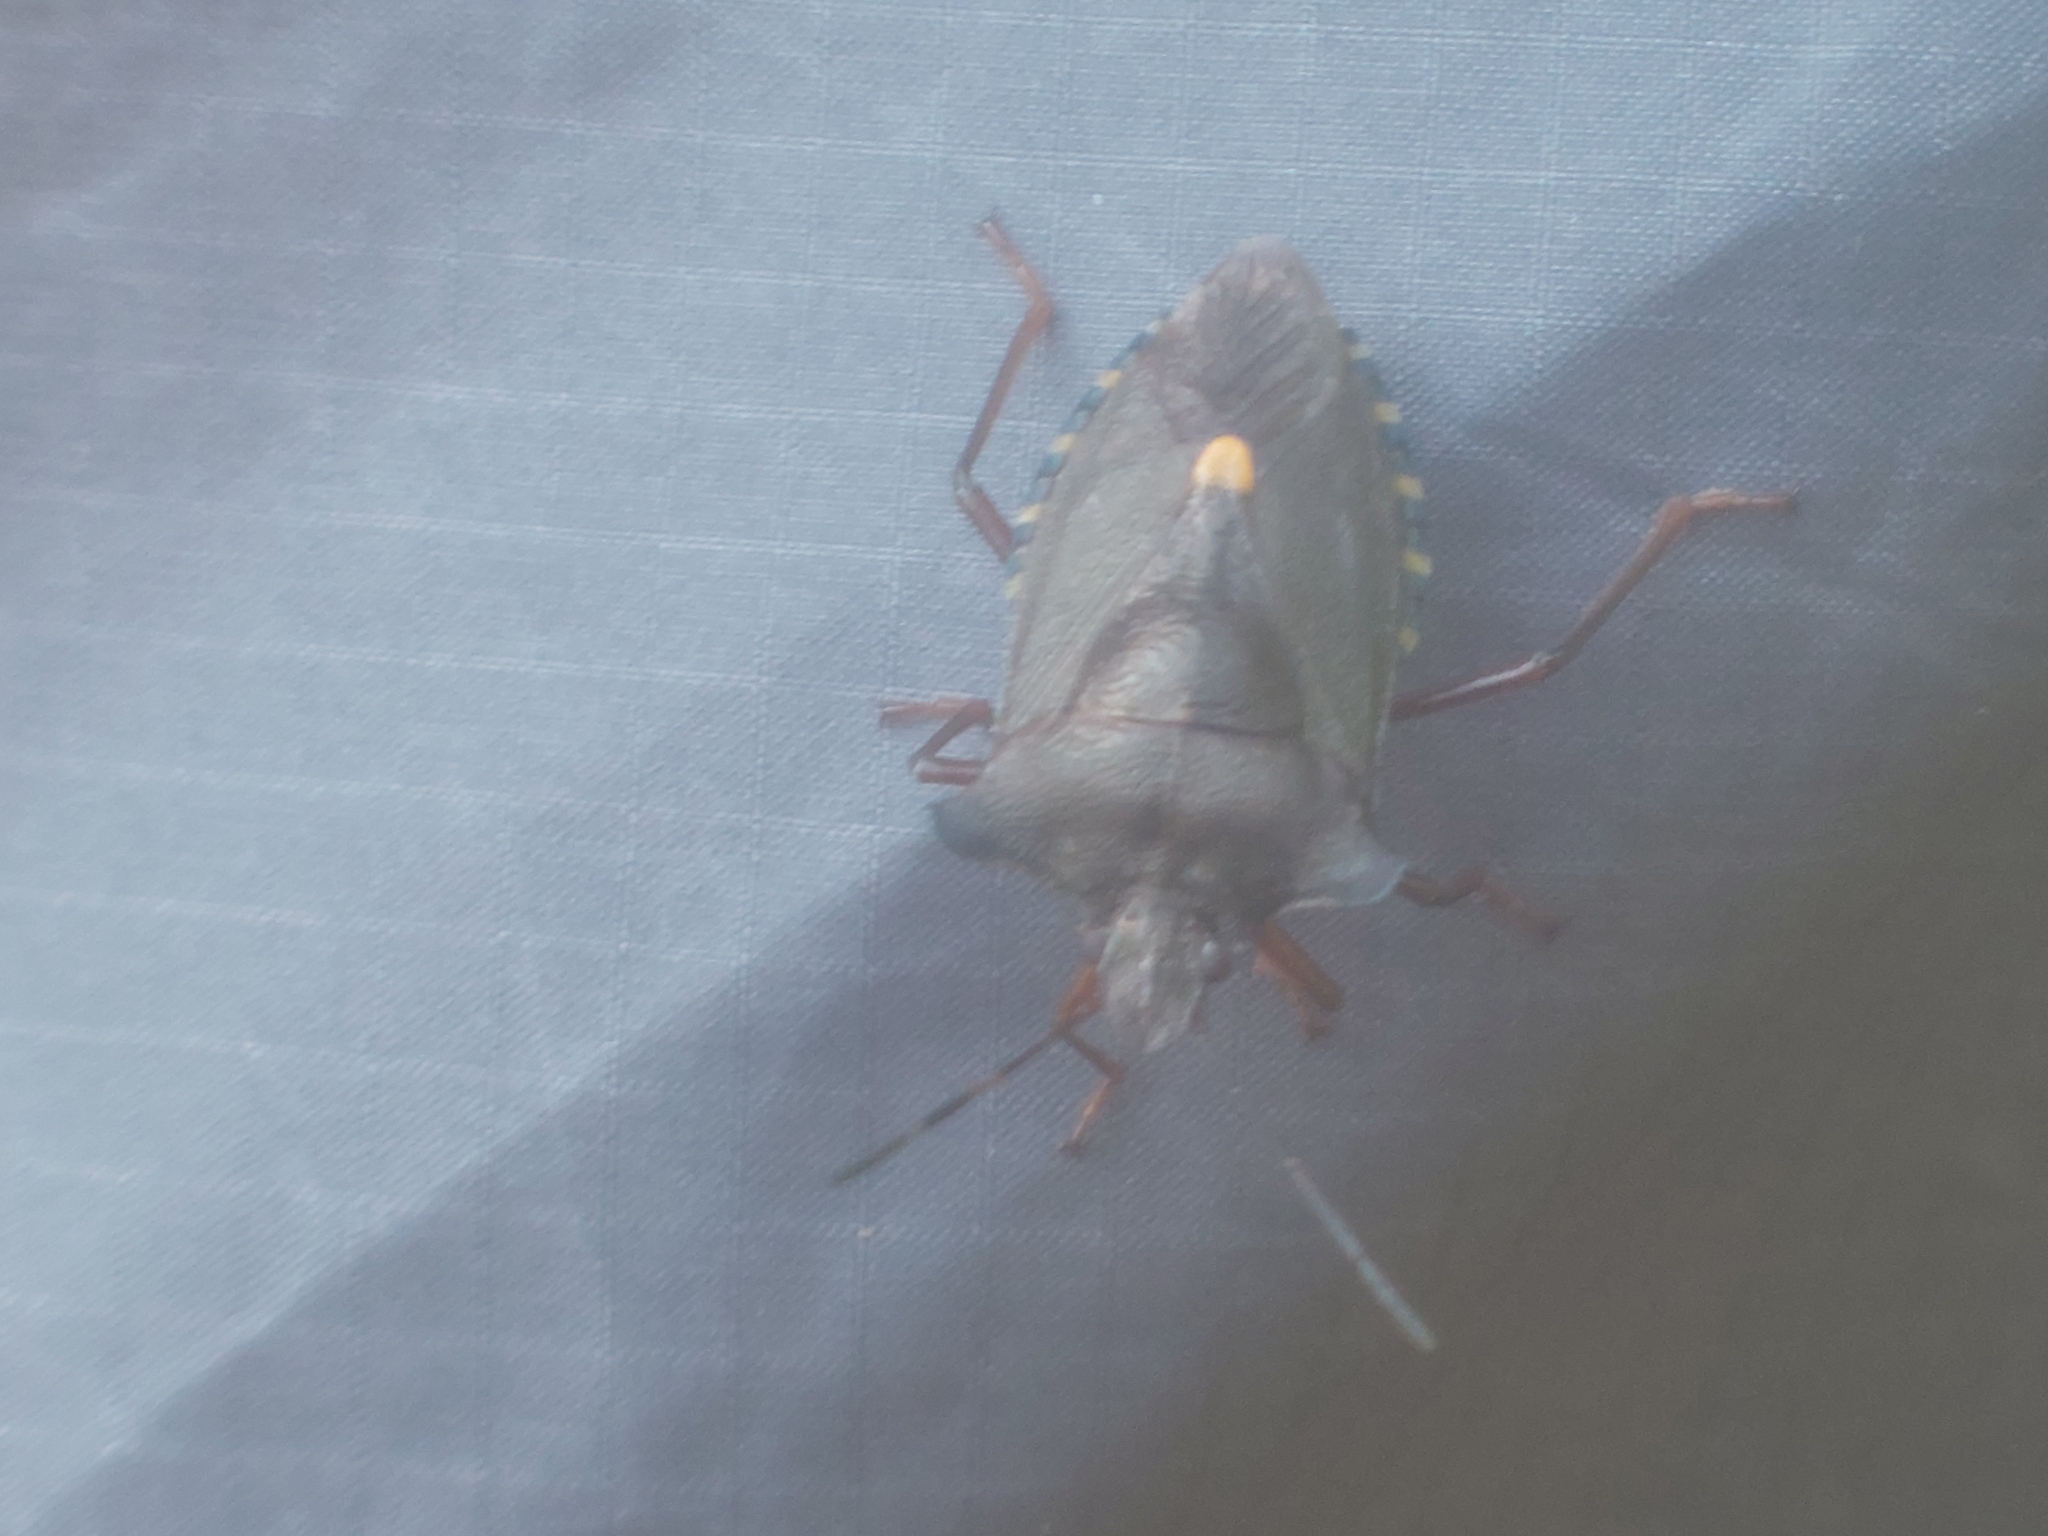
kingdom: Animalia
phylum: Arthropoda
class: Insecta
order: Hemiptera
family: Pentatomidae
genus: Pentatoma
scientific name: Pentatoma rufipes
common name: Forest bug
